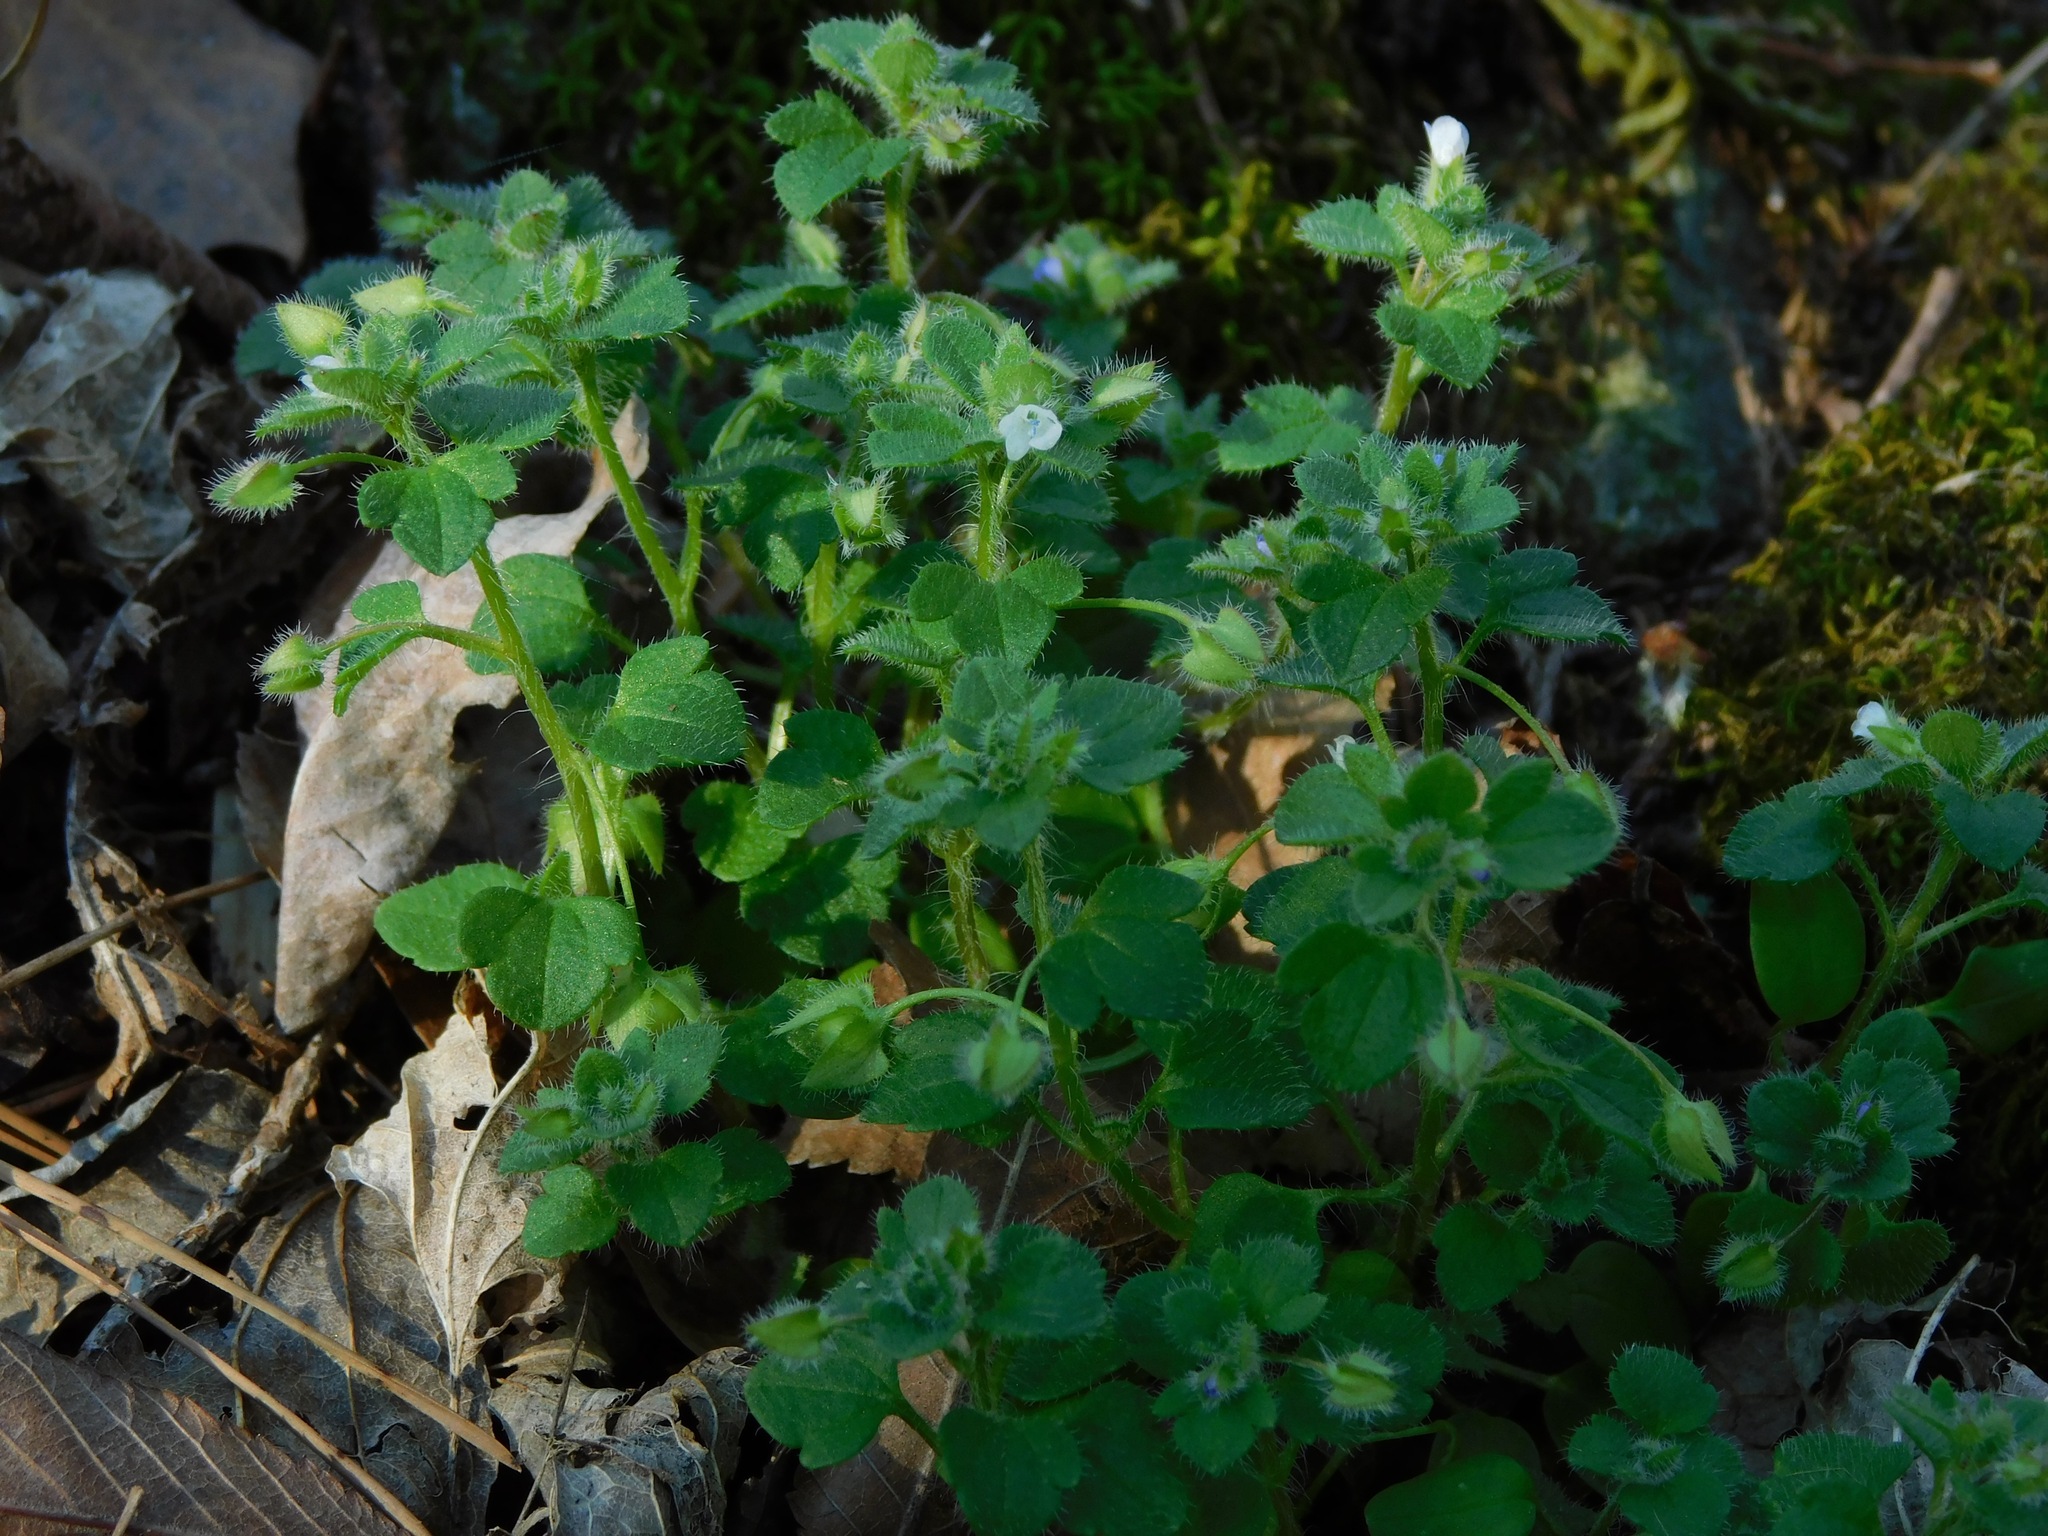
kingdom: Plantae
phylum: Tracheophyta
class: Magnoliopsida
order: Lamiales
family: Plantaginaceae
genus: Veronica
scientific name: Veronica sublobata
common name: False ivy-leaved speedwell
